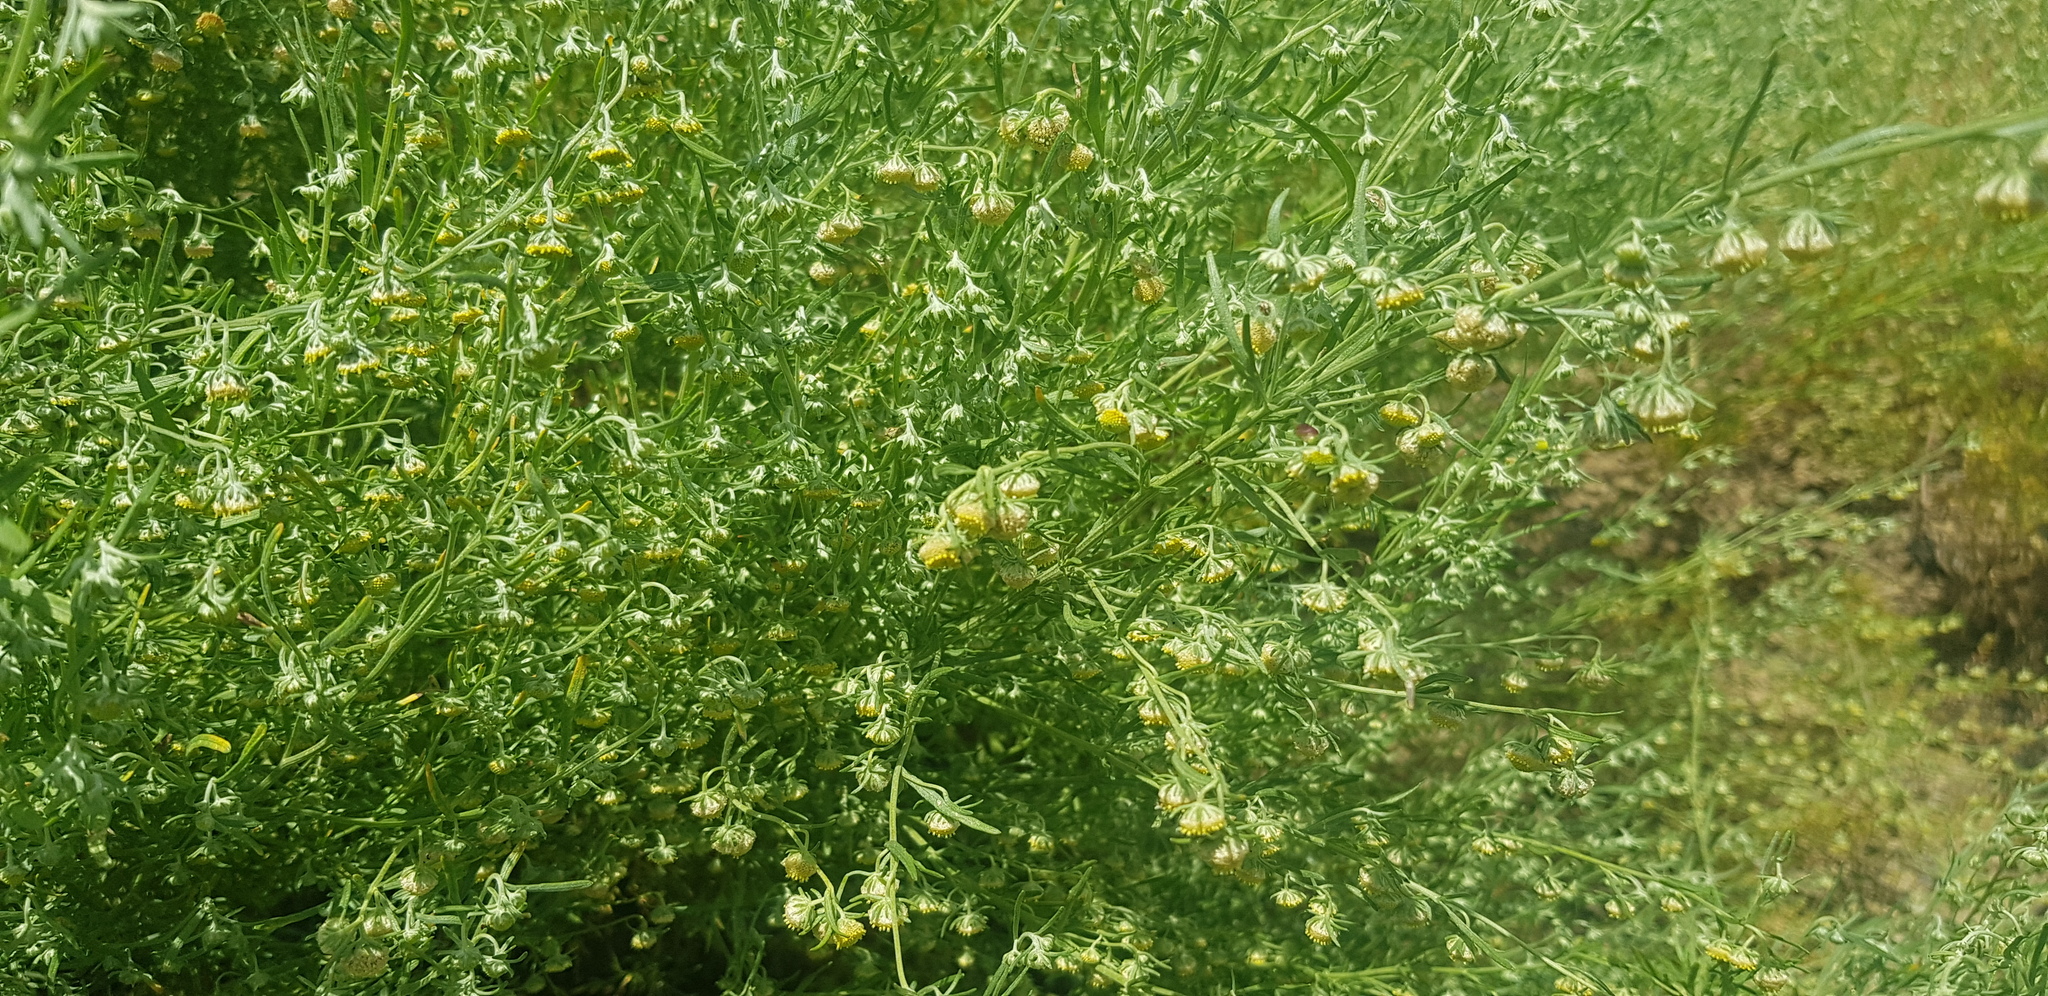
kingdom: Plantae
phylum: Tracheophyta
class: Magnoliopsida
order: Asterales
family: Asteraceae
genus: Artemisia
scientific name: Artemisia macrocephala
